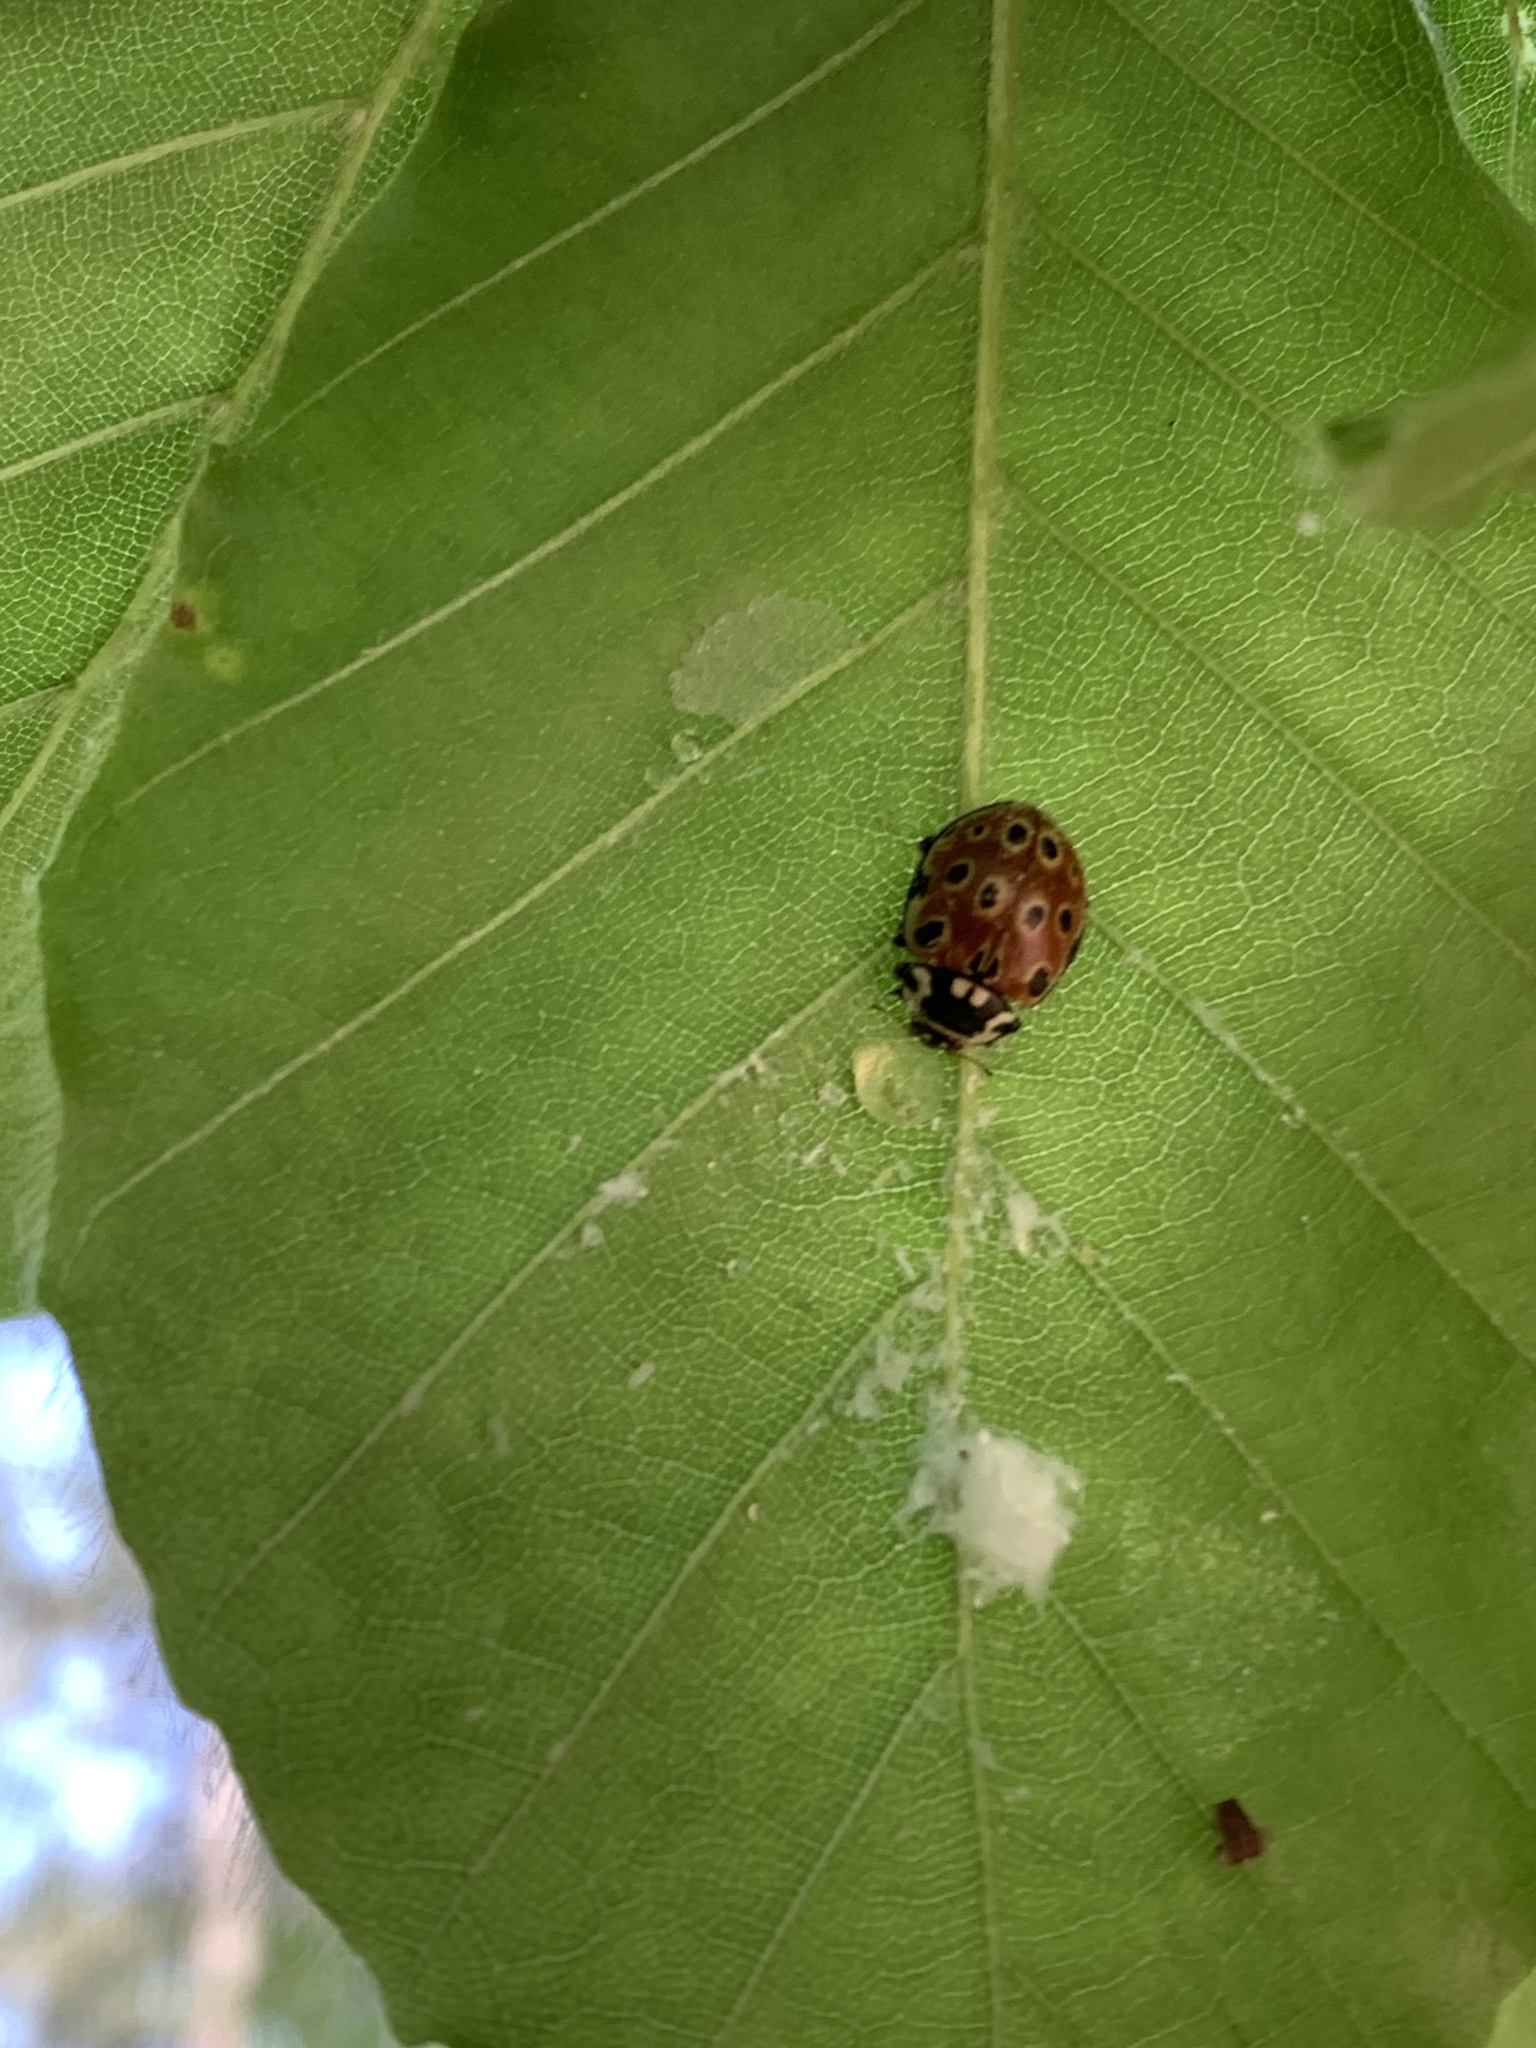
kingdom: Animalia
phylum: Arthropoda
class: Insecta
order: Coleoptera
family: Coccinellidae
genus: Anatis
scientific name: Anatis ocellata
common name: Eyed ladybird
